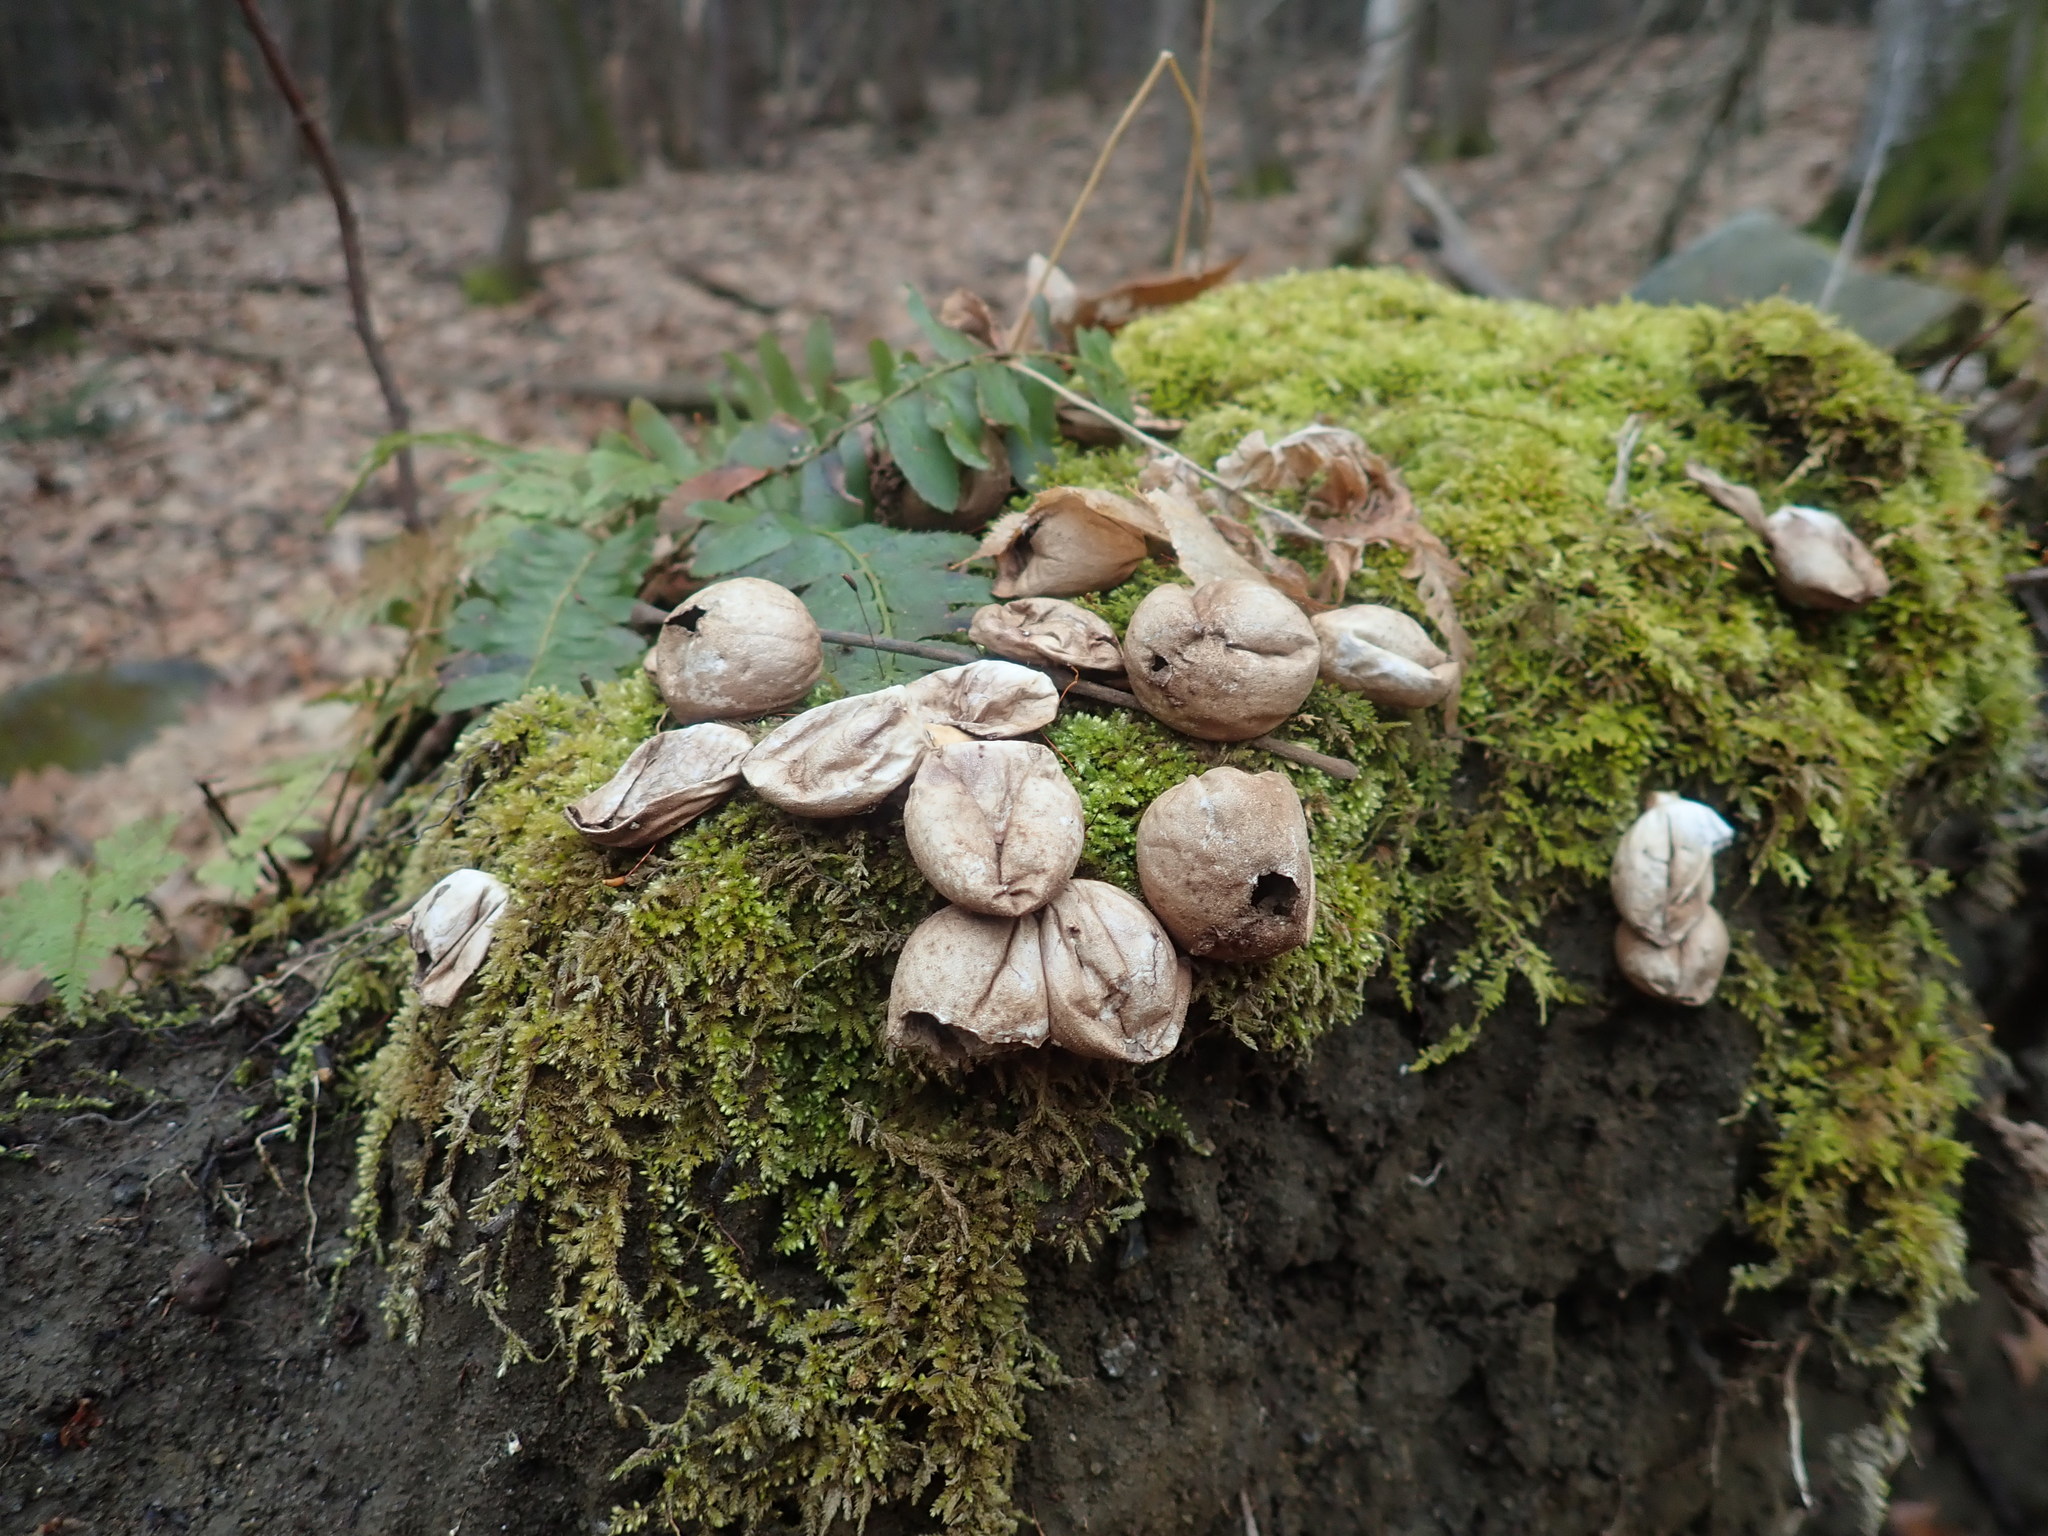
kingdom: Fungi
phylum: Basidiomycota
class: Agaricomycetes
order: Agaricales
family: Lycoperdaceae
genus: Apioperdon
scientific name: Apioperdon pyriforme
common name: Pear-shaped puffball
